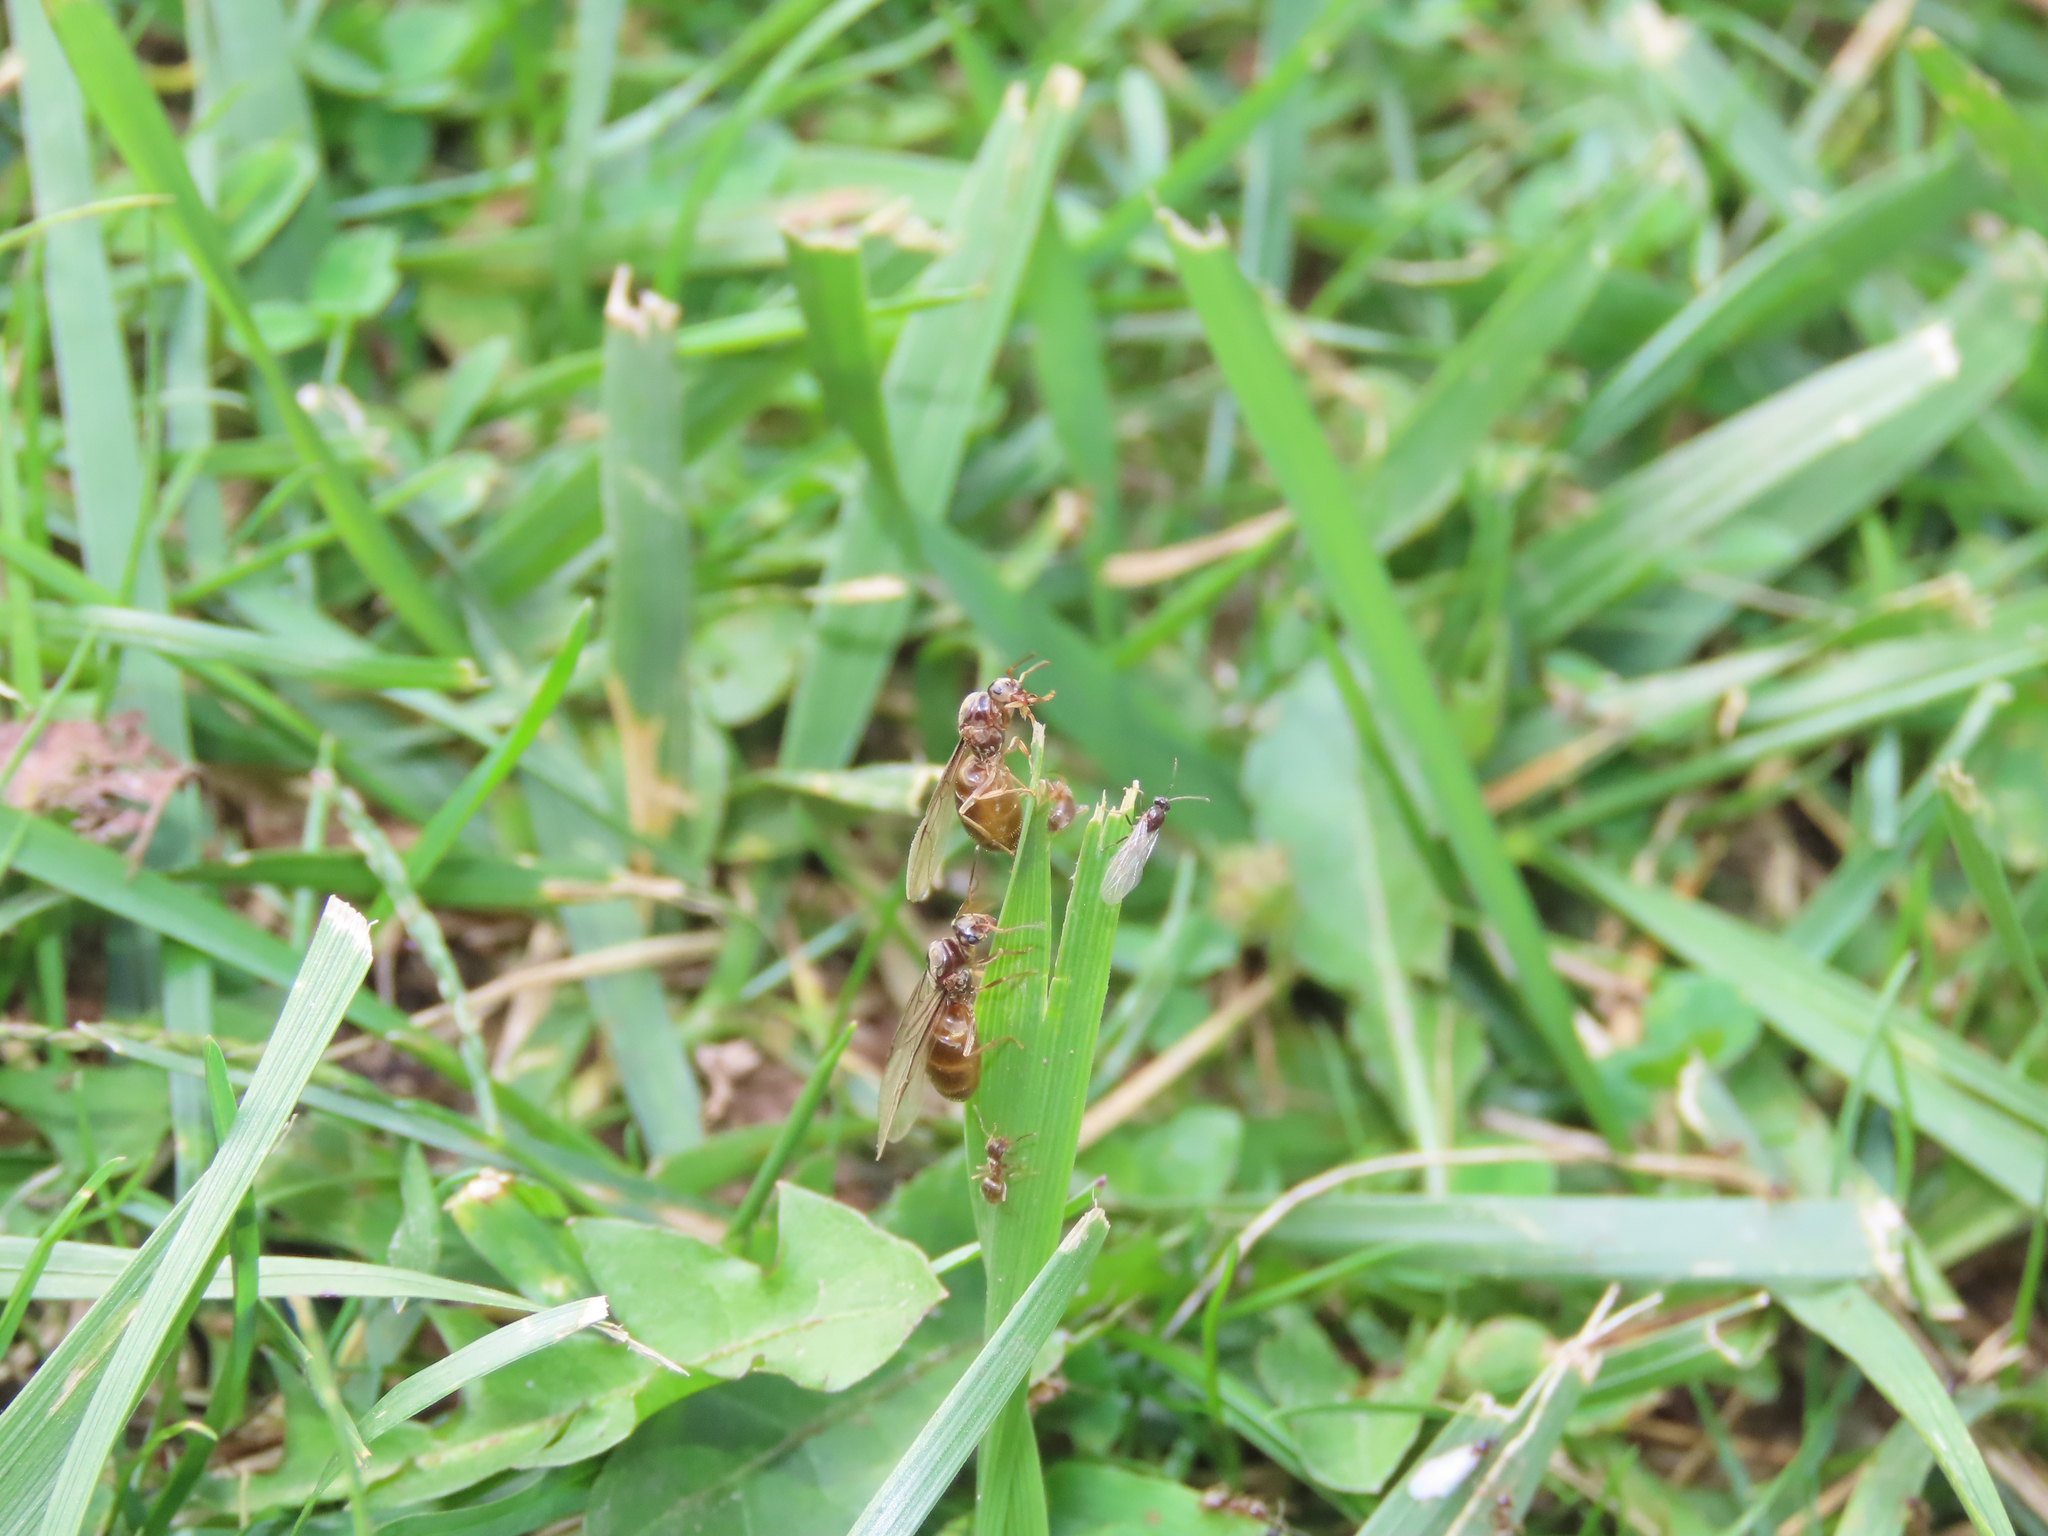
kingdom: Animalia
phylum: Arthropoda
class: Insecta
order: Hymenoptera
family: Formicidae
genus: Lasius
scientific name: Lasius neoniger
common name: Turfgrass ant
